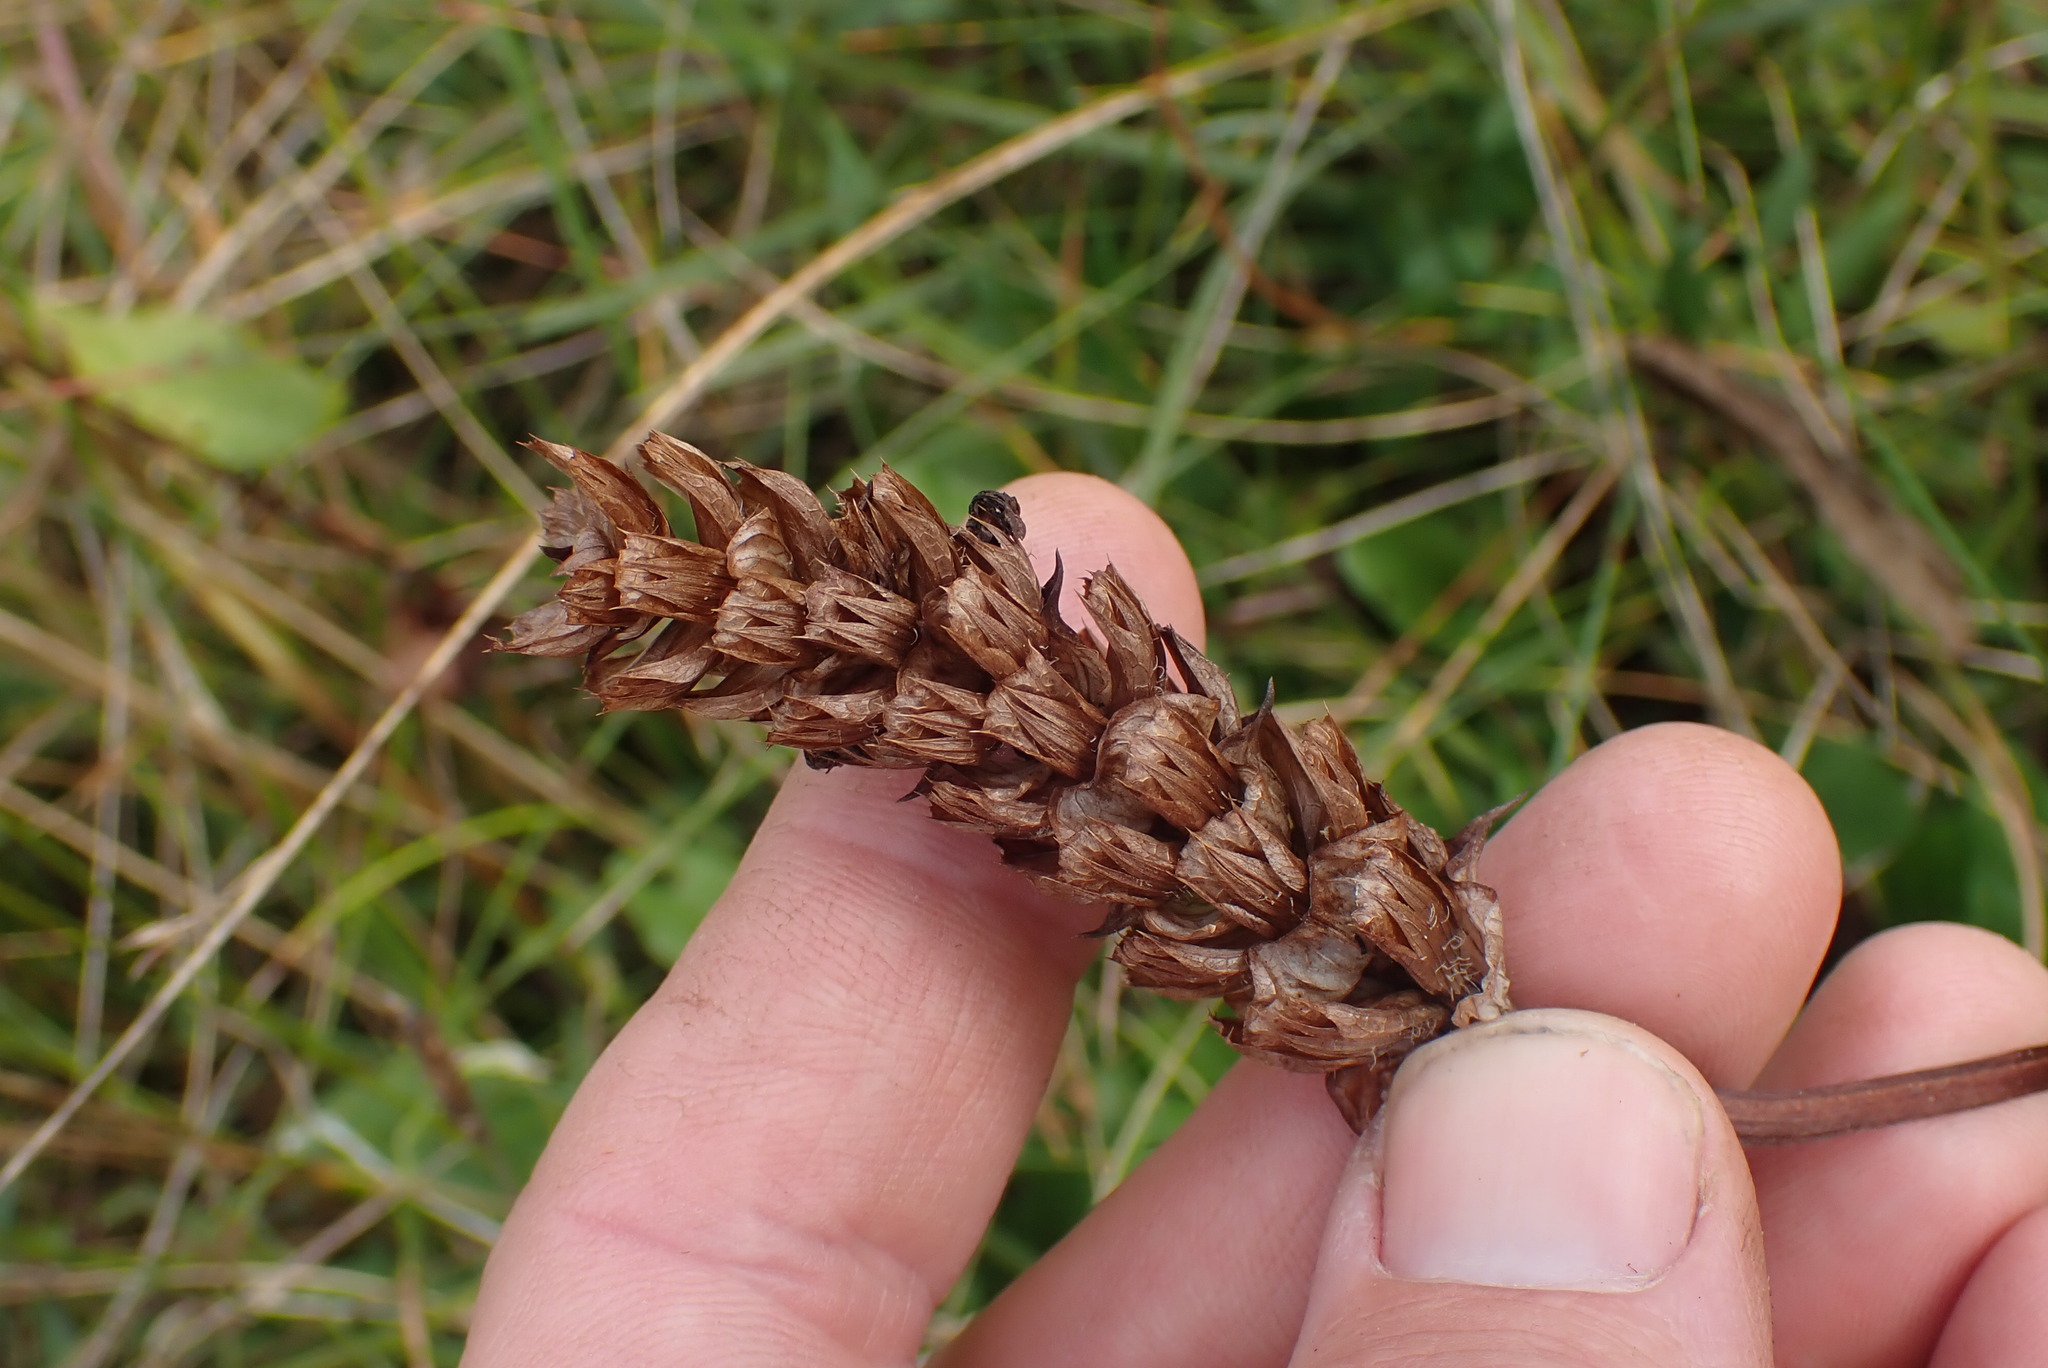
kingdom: Plantae
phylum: Tracheophyta
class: Magnoliopsida
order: Lamiales
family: Lamiaceae
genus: Prunella
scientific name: Prunella vulgaris
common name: Heal-all
